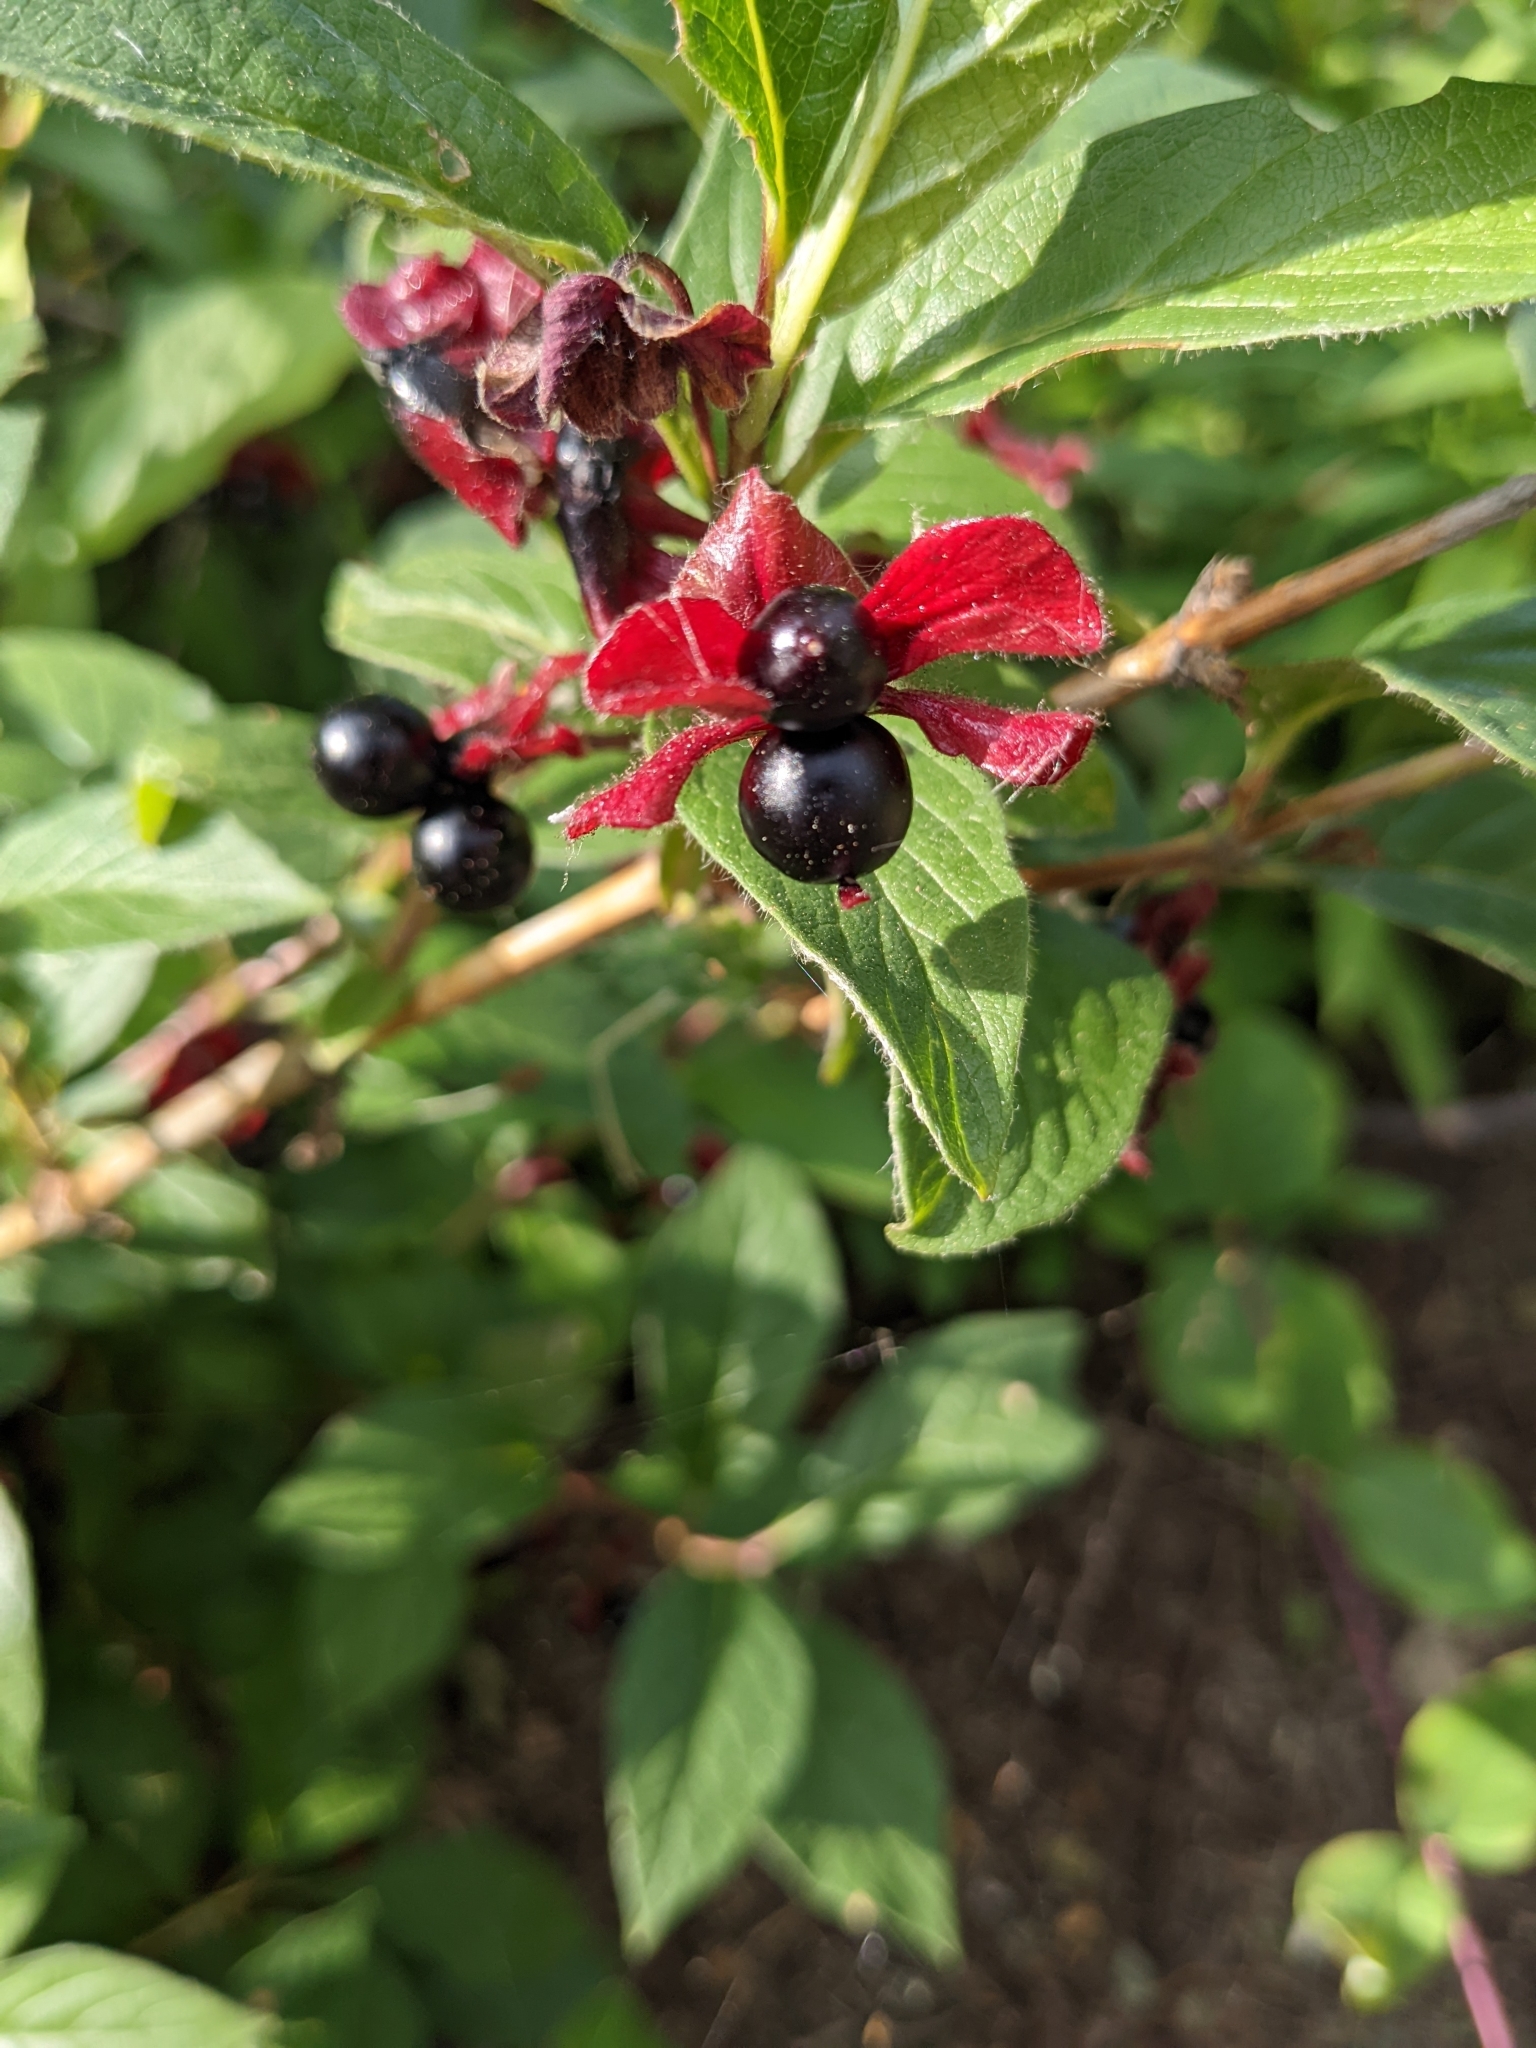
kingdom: Plantae
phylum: Tracheophyta
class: Magnoliopsida
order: Dipsacales
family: Caprifoliaceae
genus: Lonicera
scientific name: Lonicera involucrata
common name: Californian honeysuckle
